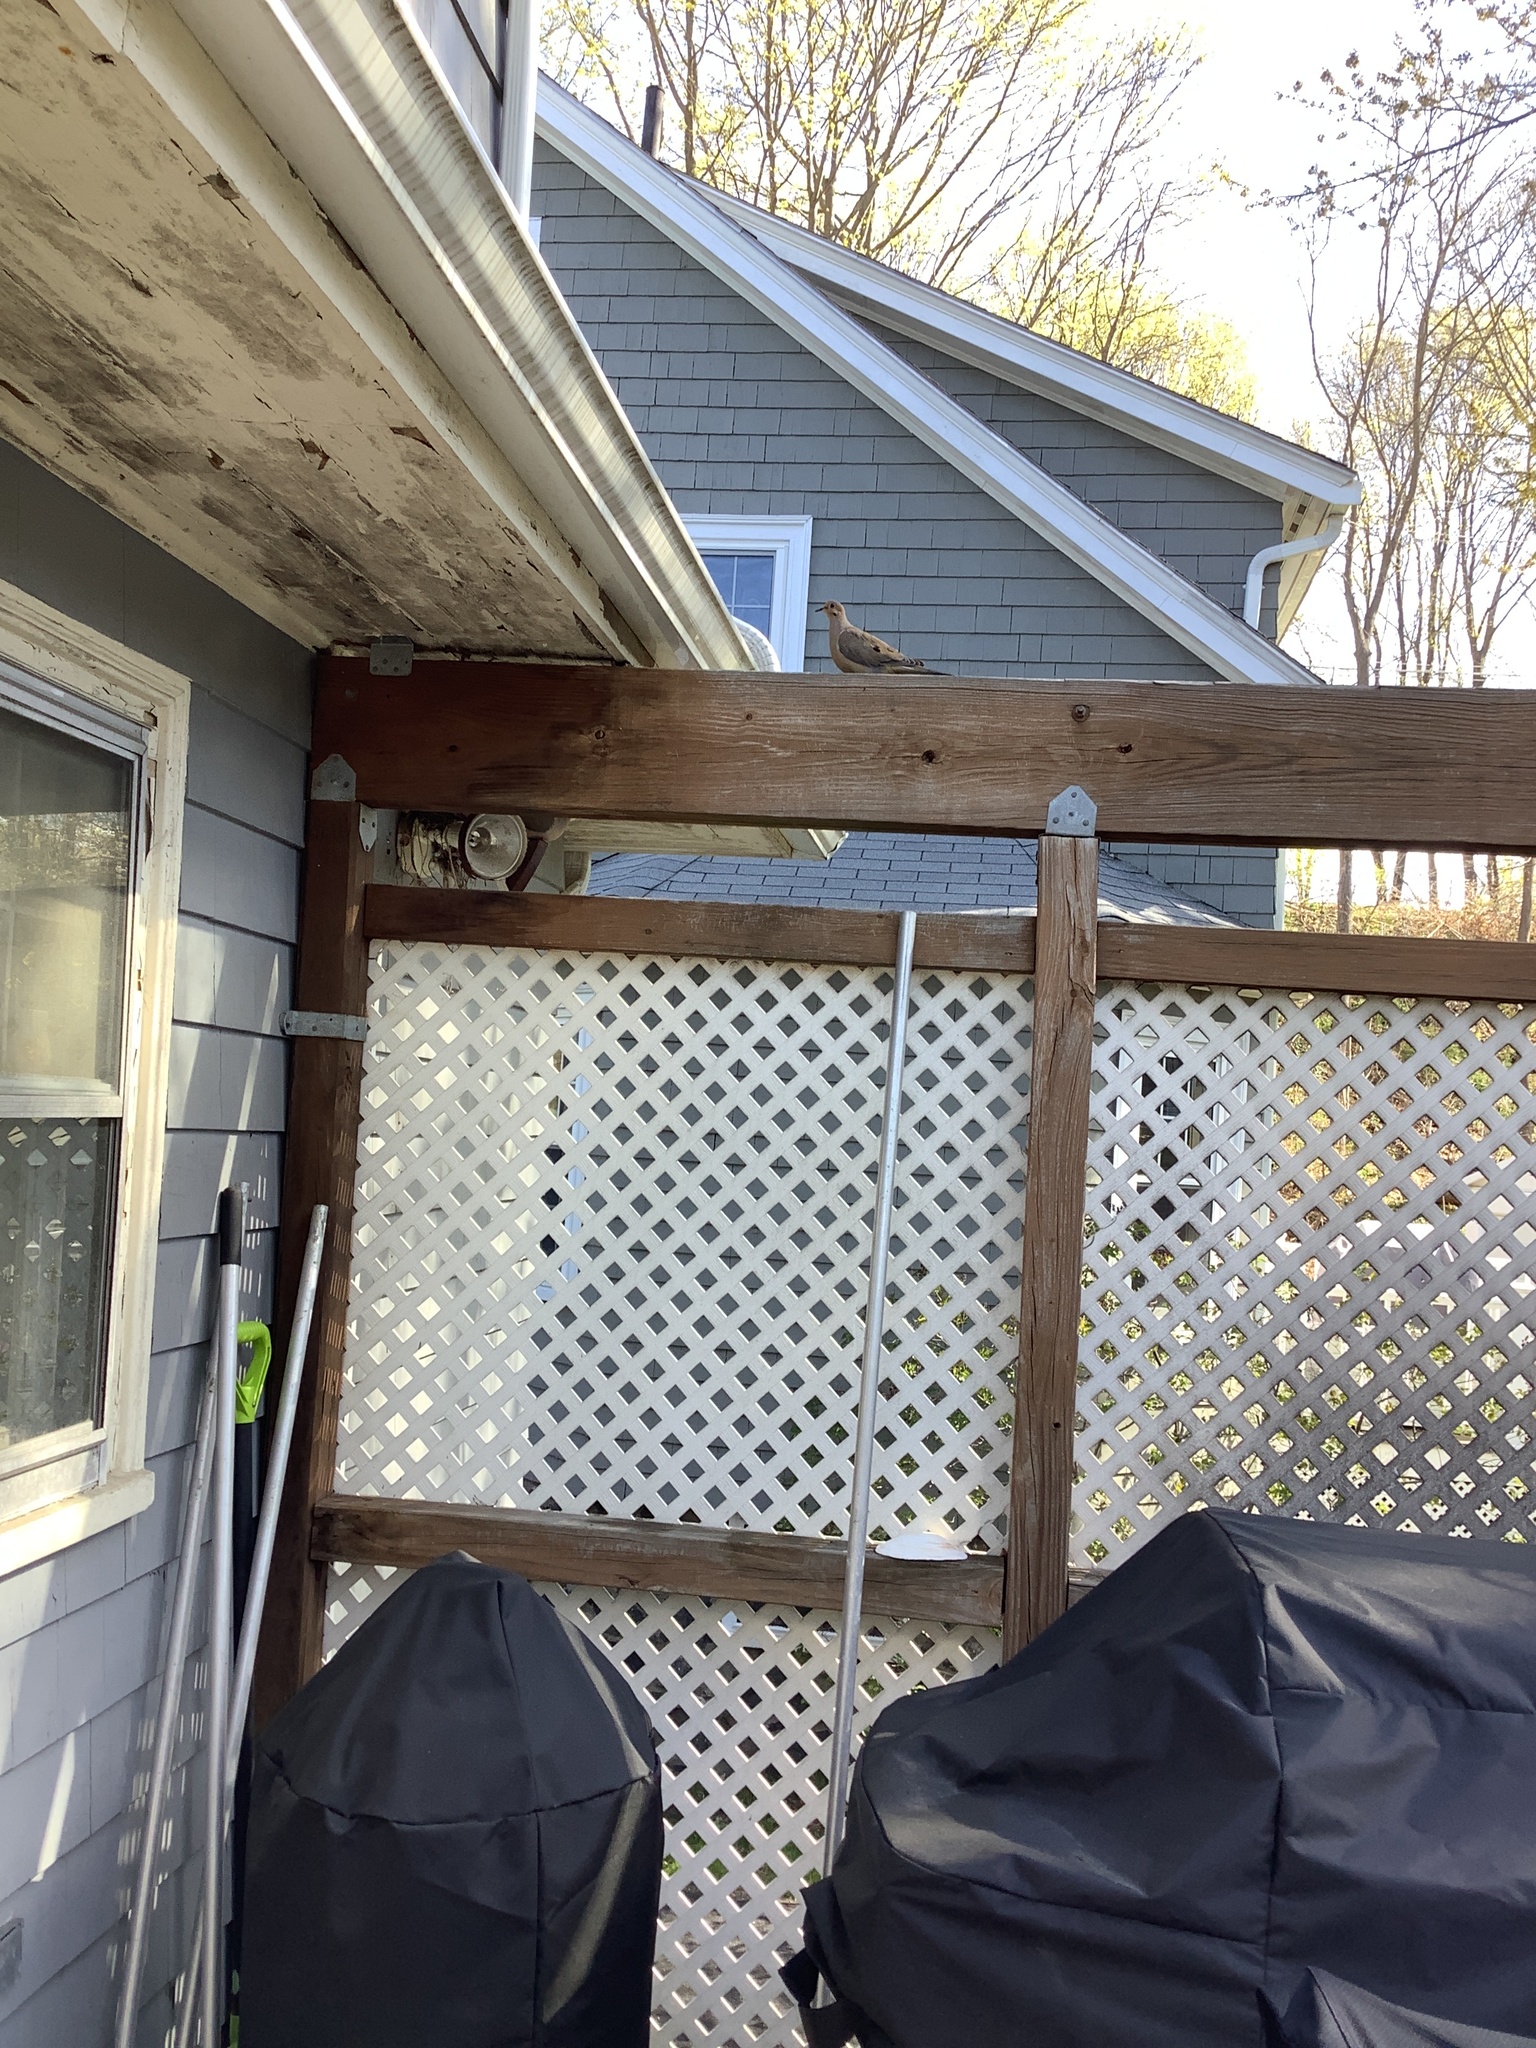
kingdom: Animalia
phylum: Chordata
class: Aves
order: Columbiformes
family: Columbidae
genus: Zenaida
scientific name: Zenaida macroura
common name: Mourning dove
